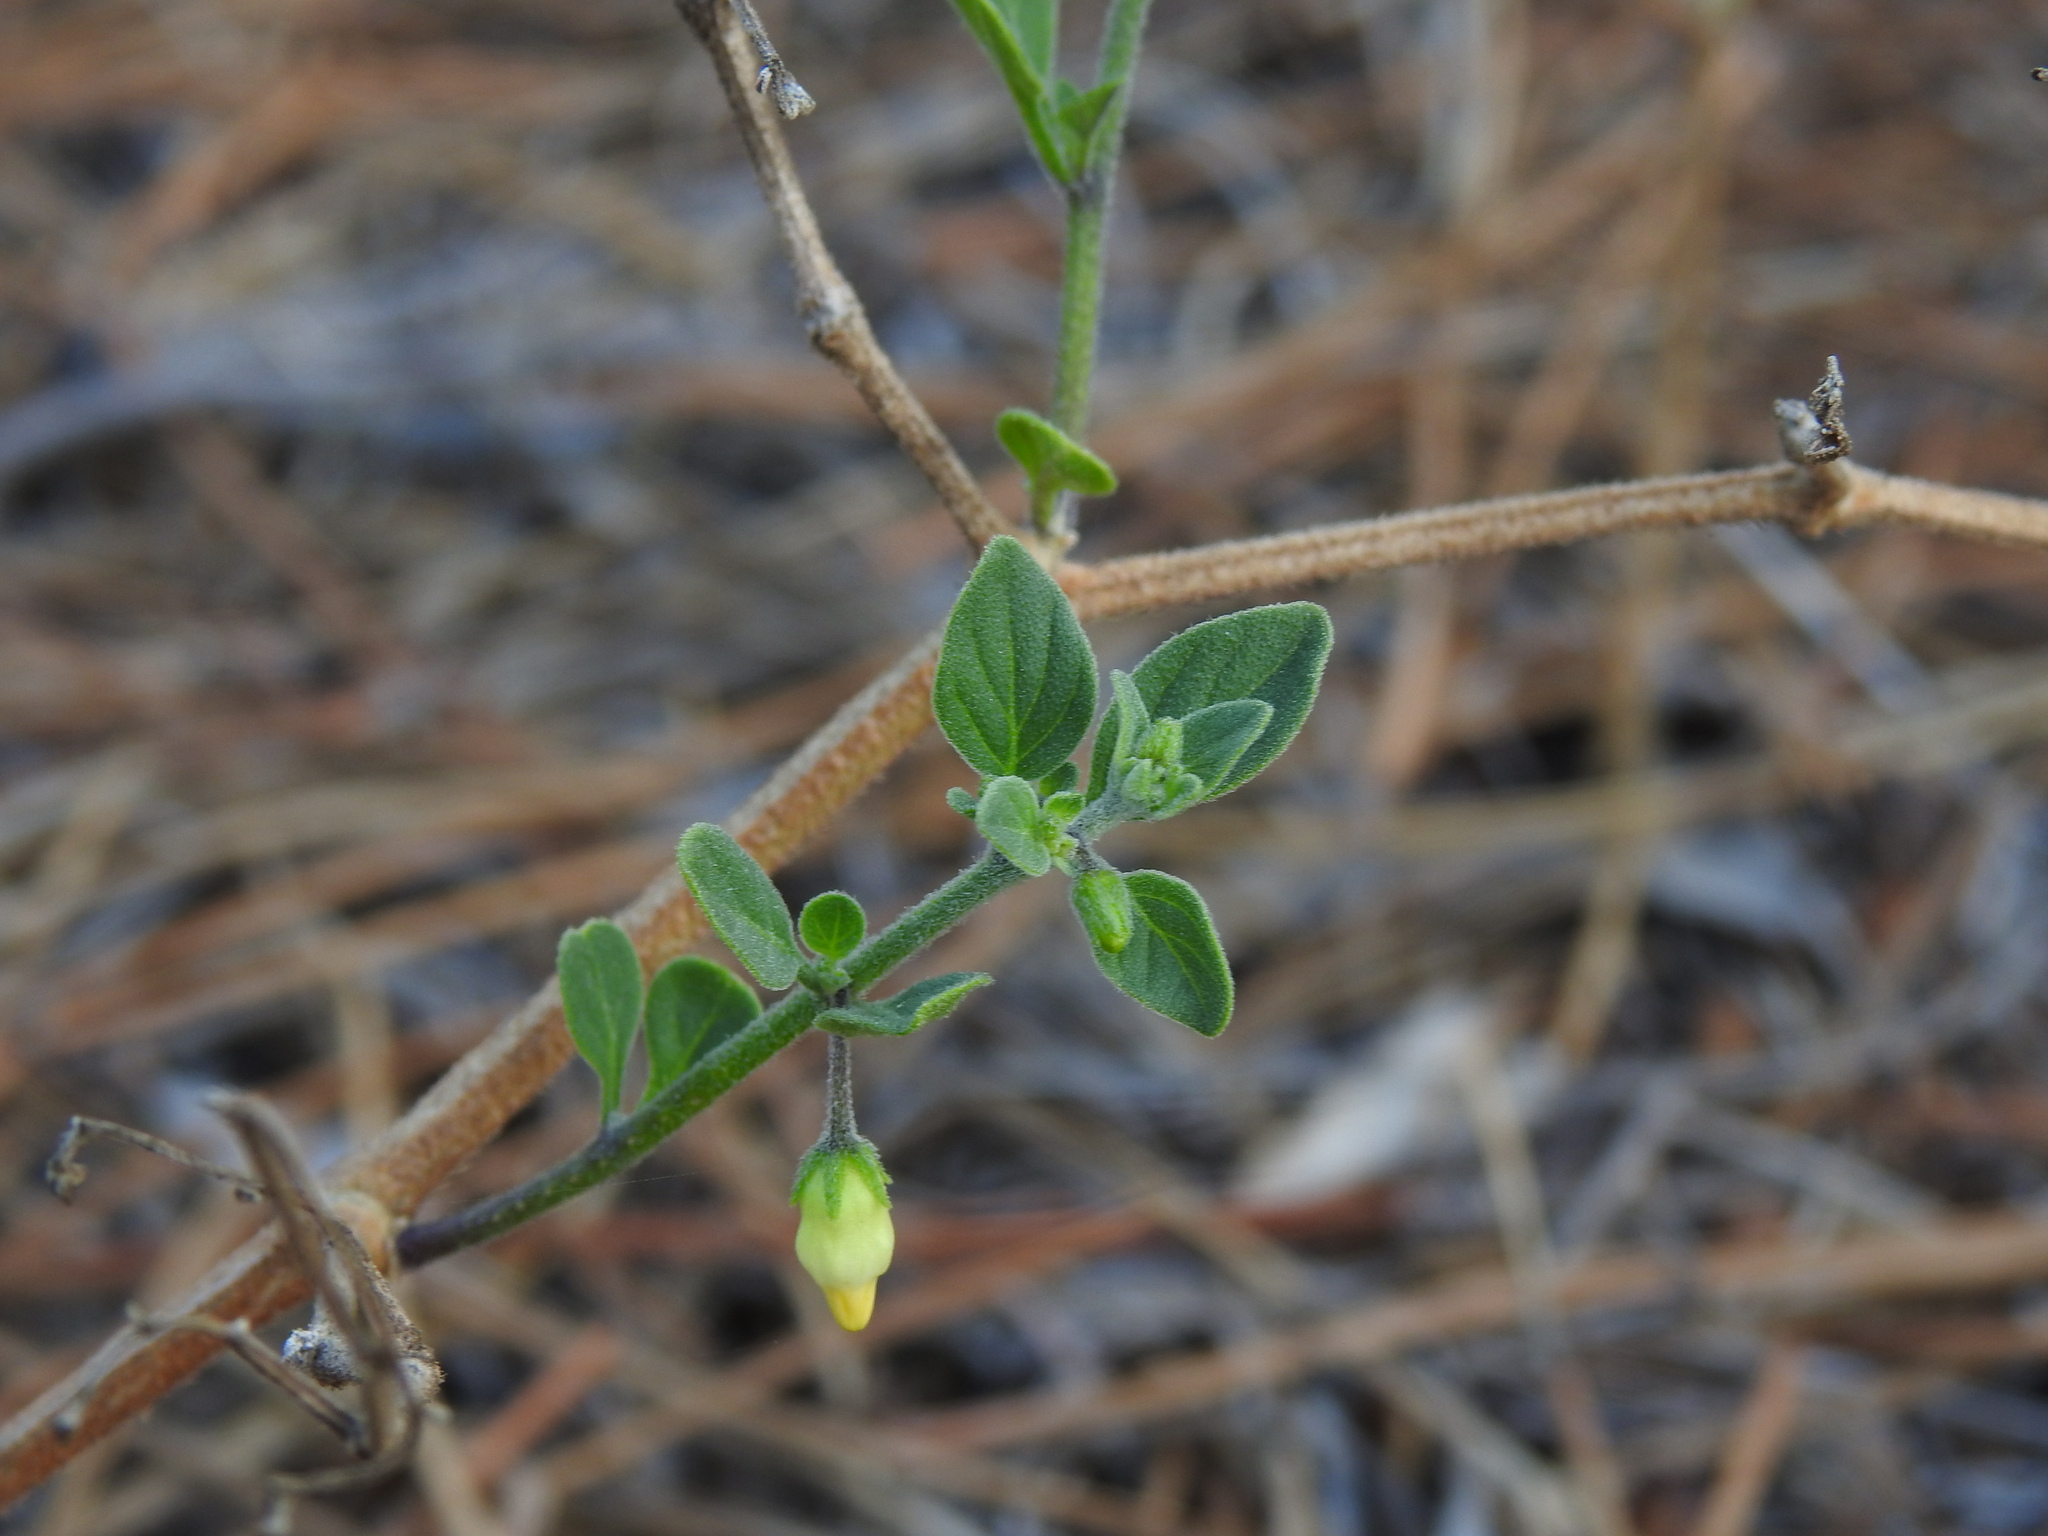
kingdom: Plantae
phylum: Tracheophyta
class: Magnoliopsida
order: Solanales
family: Solanaceae
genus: Salpichroa
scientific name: Salpichroa origanifolia
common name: Lily-of-the-valley-vine
